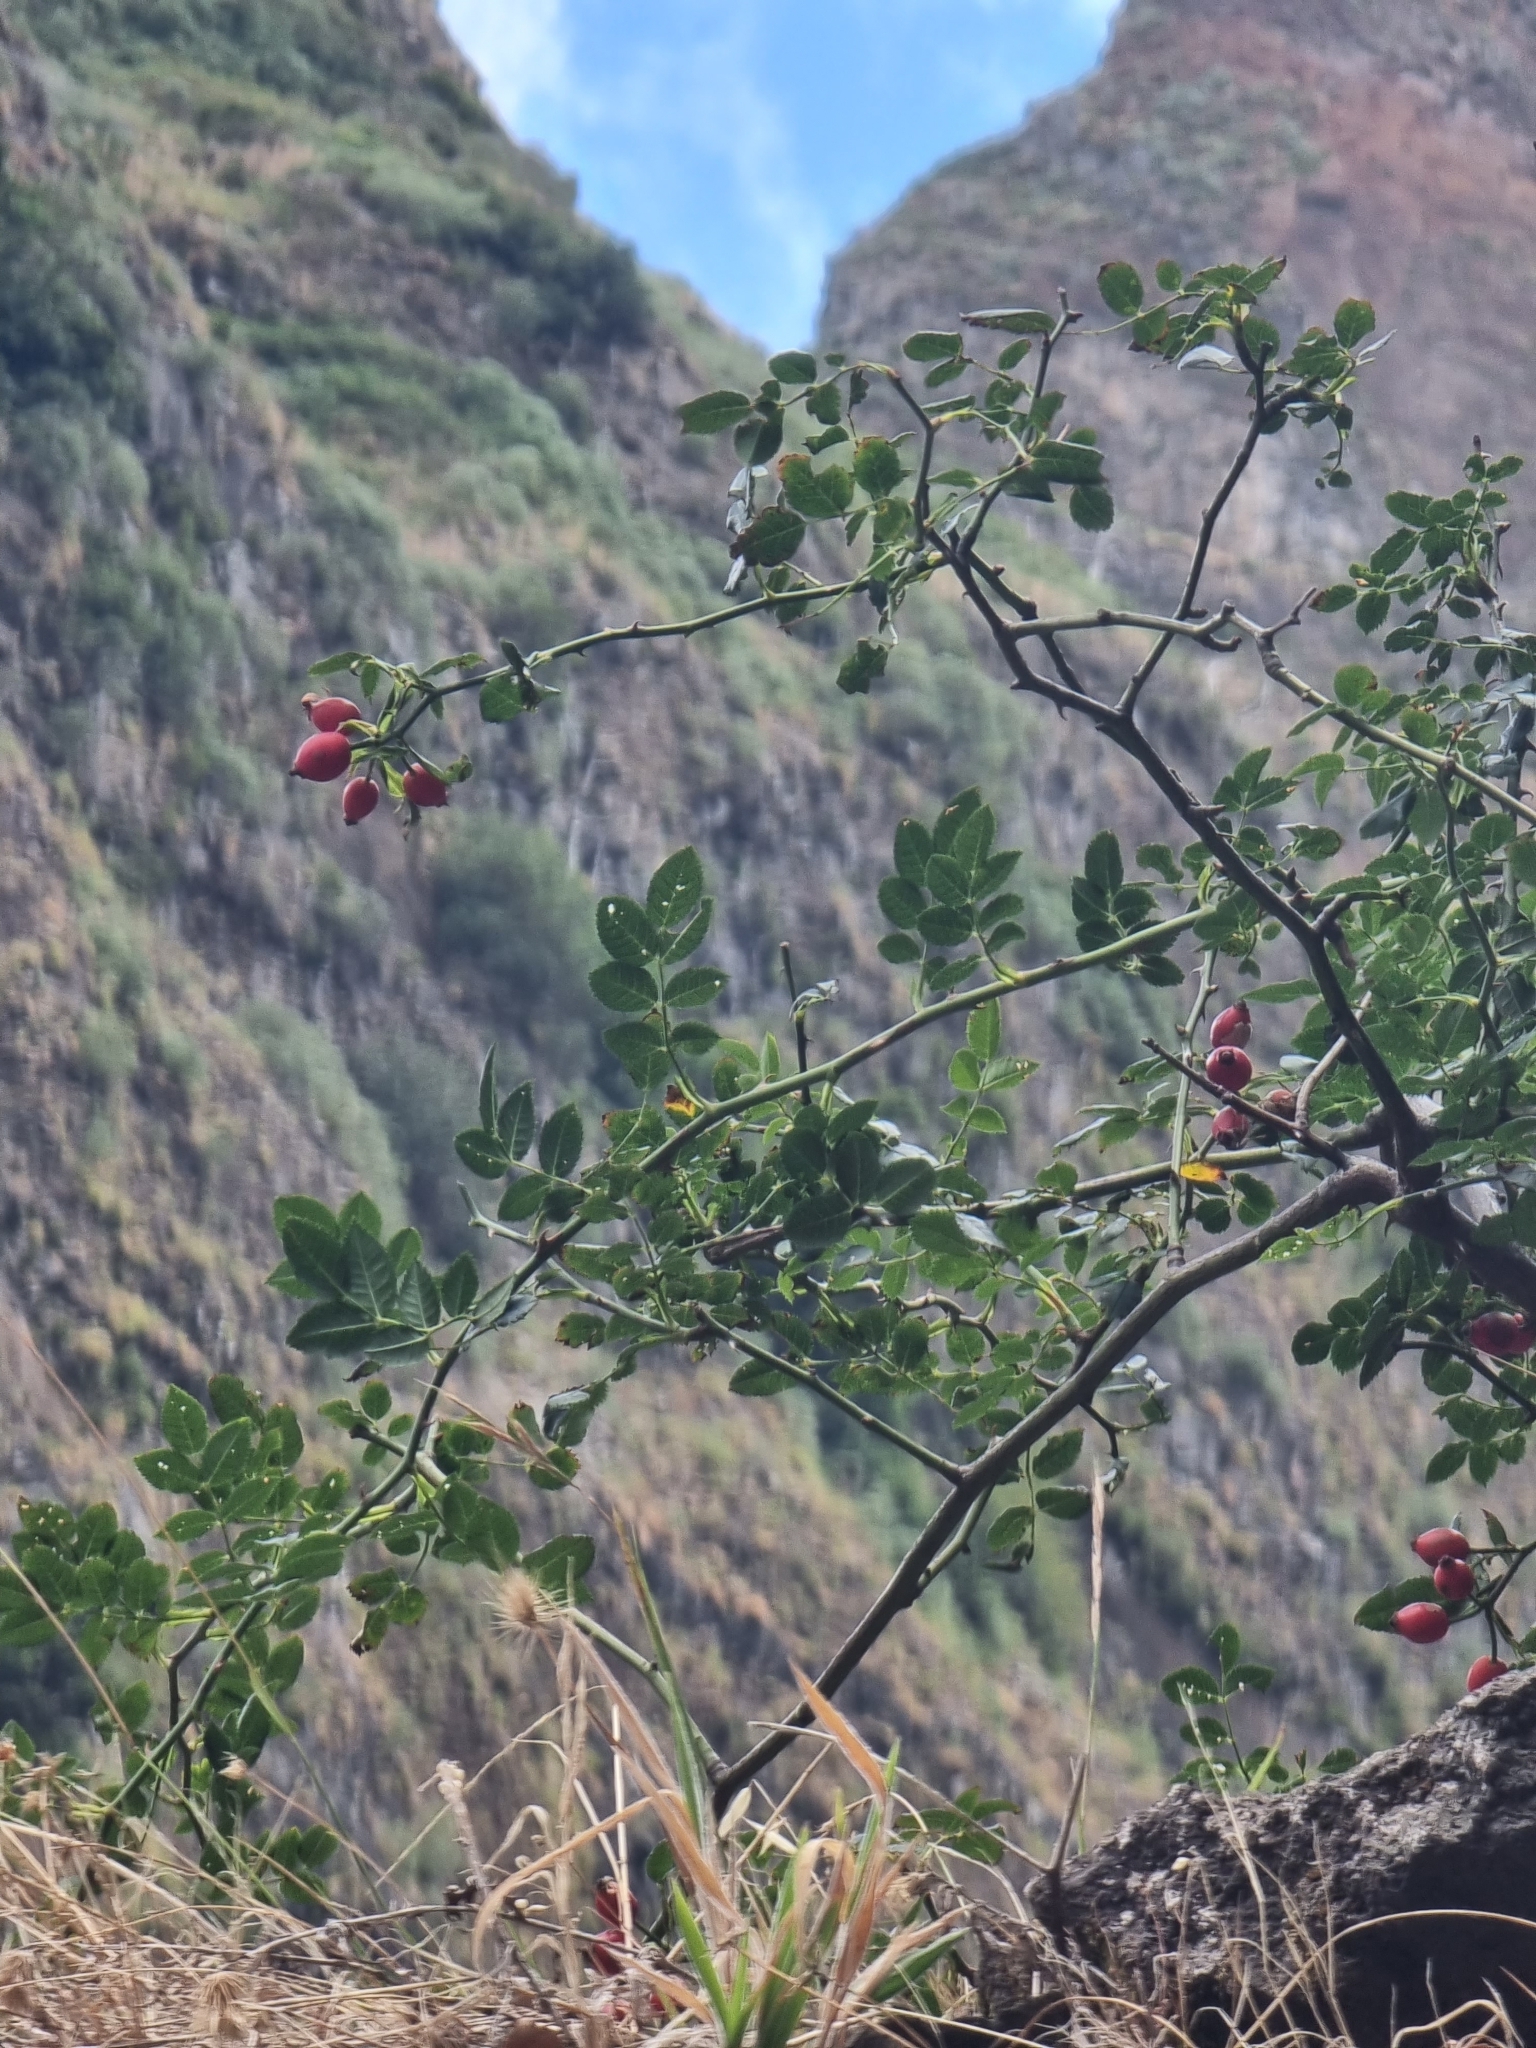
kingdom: Plantae
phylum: Tracheophyta
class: Magnoliopsida
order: Rosales
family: Rosaceae
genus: Rosa
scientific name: Rosa canina
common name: Dog rose
